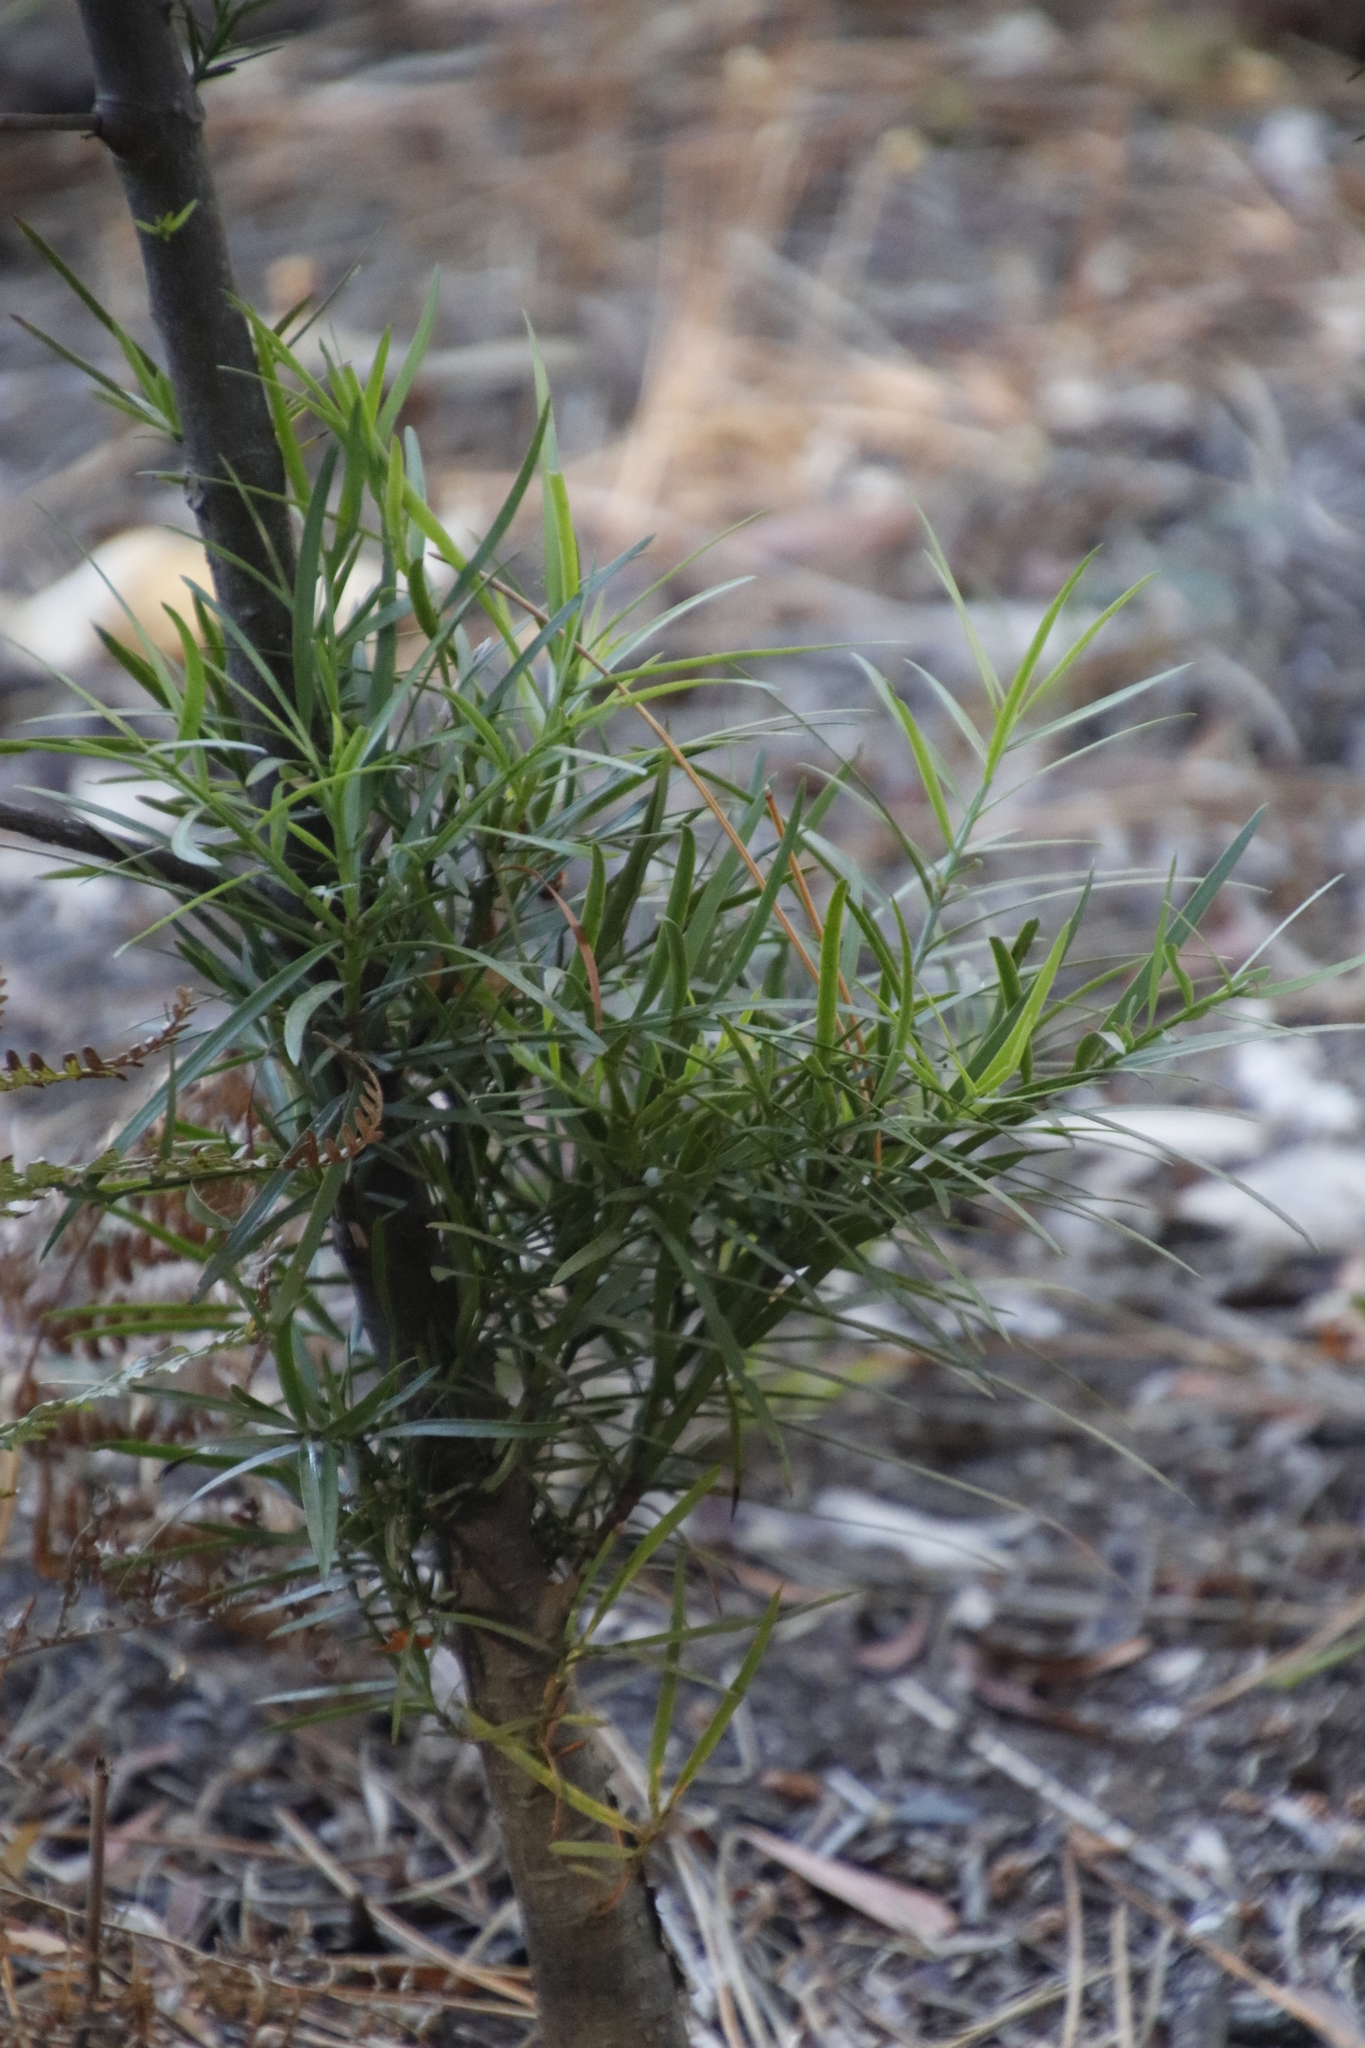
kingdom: Plantae
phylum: Tracheophyta
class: Pinopsida
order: Pinales
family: Podocarpaceae
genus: Afrocarpus
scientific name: Afrocarpus falcatus
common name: Bastard yellowwood
